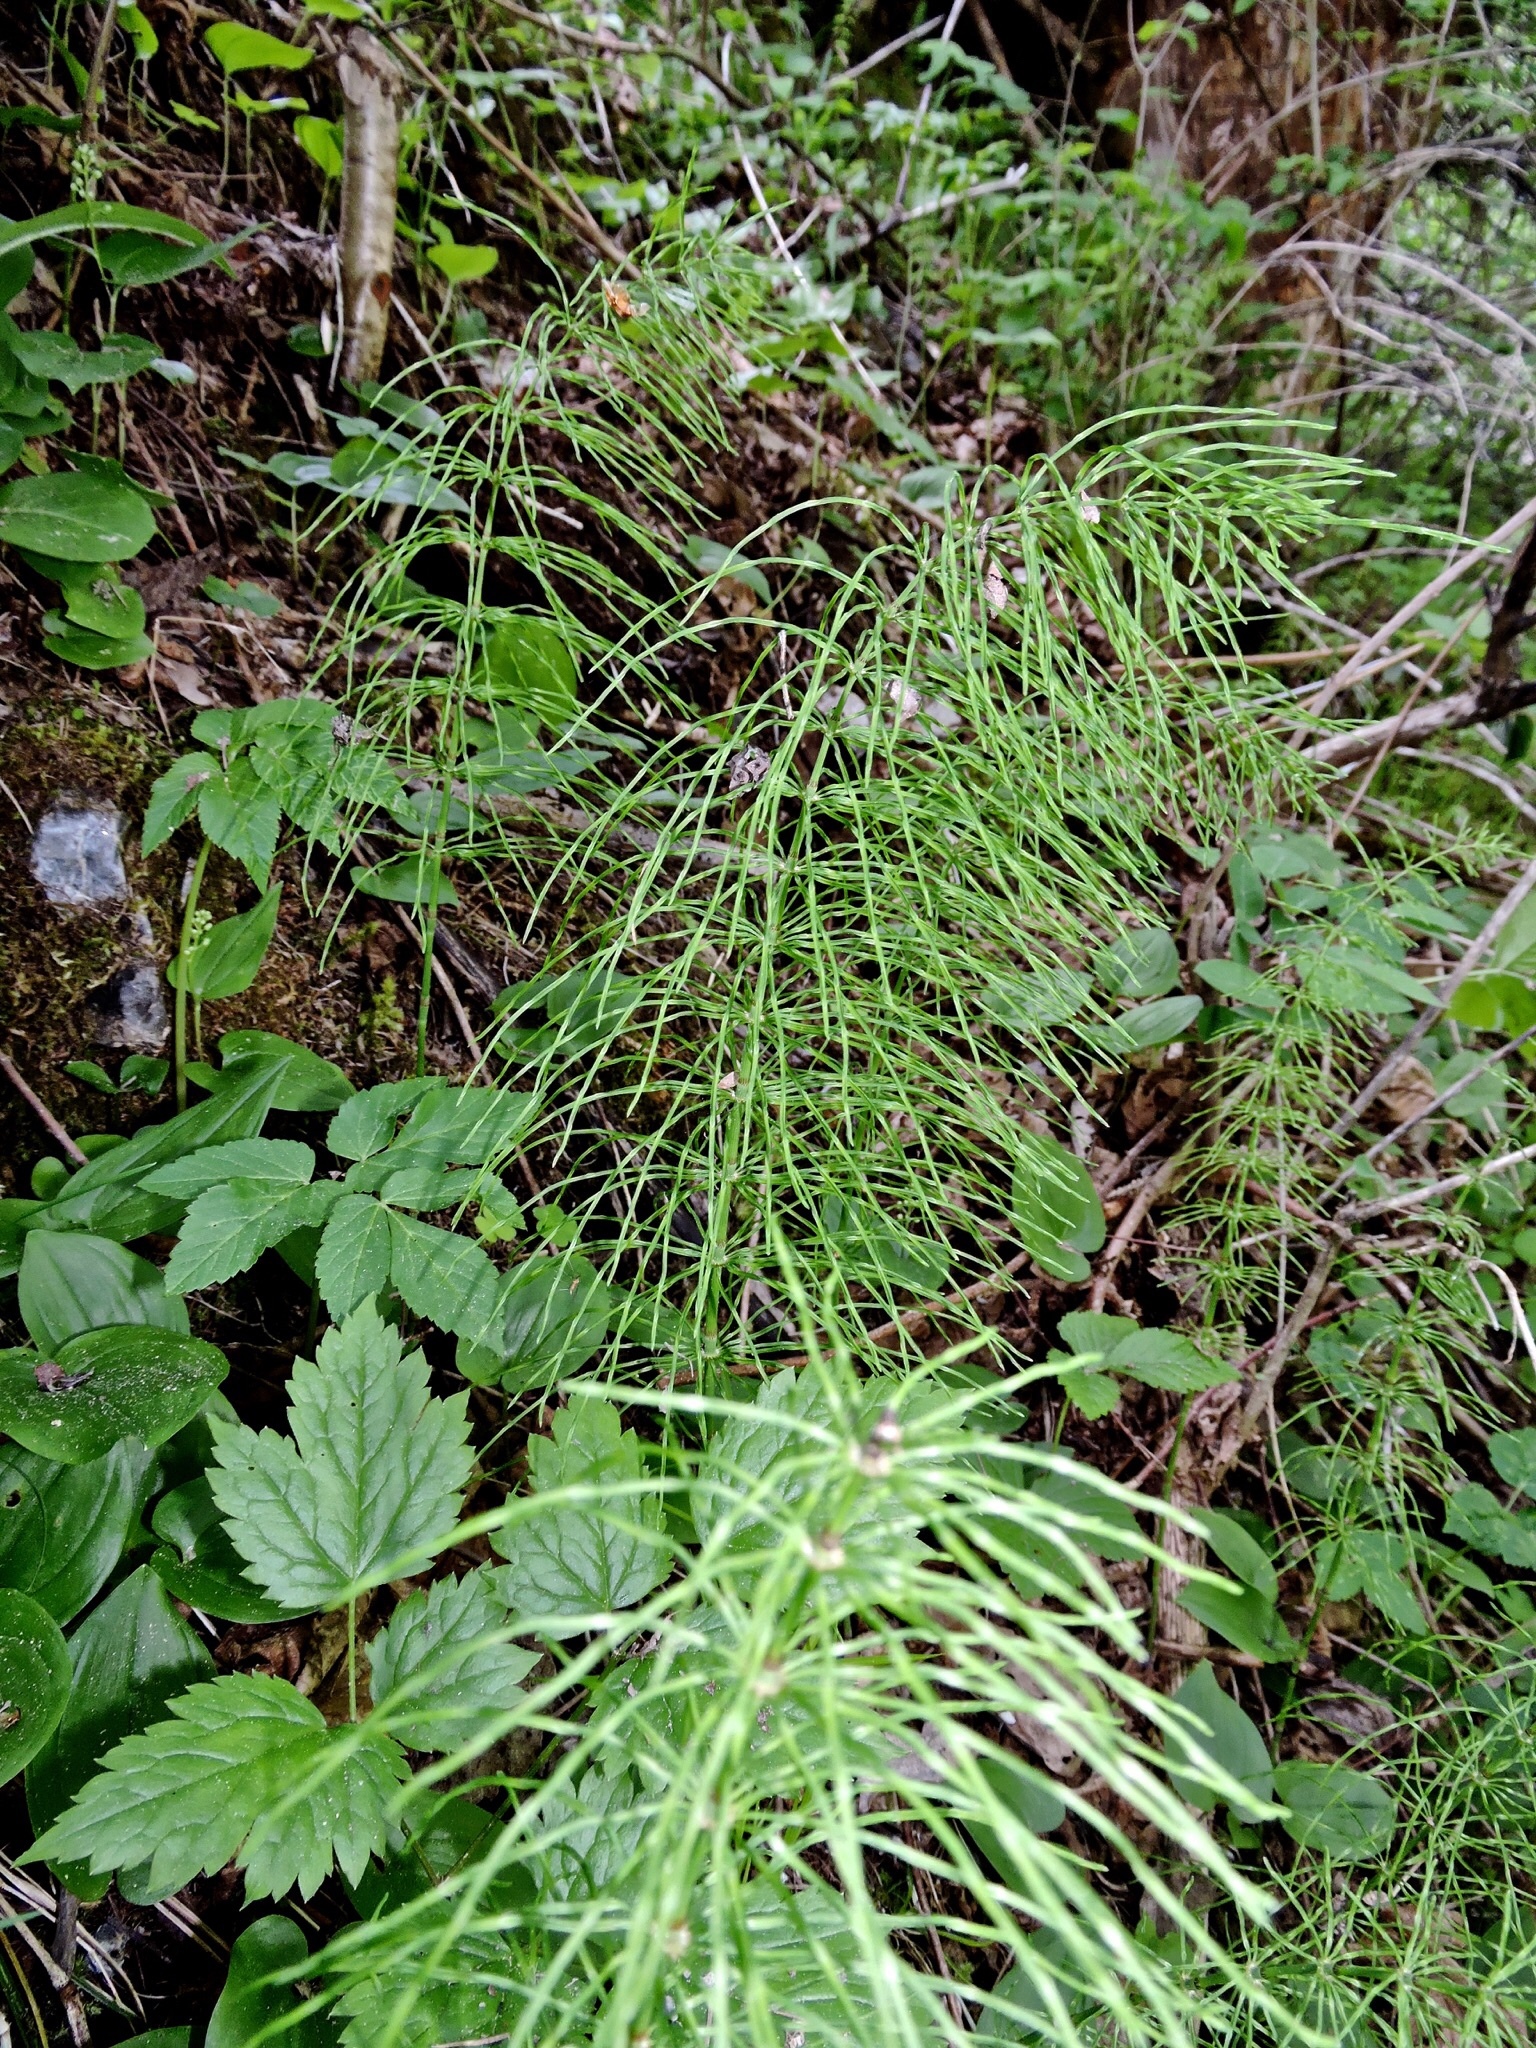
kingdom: Plantae
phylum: Tracheophyta
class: Polypodiopsida
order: Equisetales
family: Equisetaceae
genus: Equisetum
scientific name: Equisetum pratense
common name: Meadow horsetail
